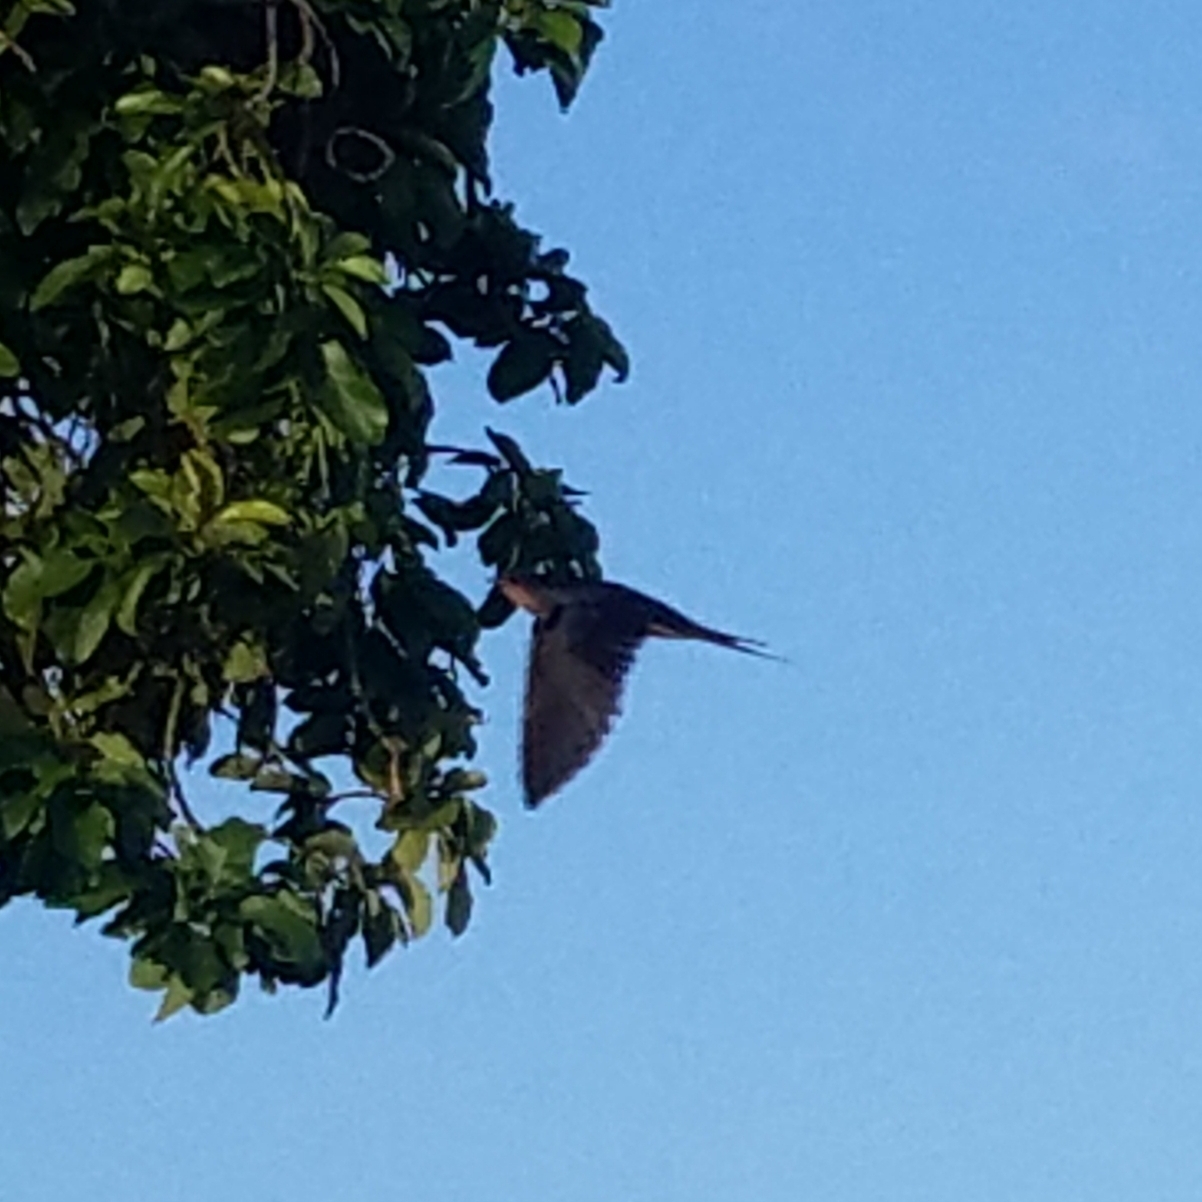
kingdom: Animalia
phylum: Chordata
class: Aves
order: Passeriformes
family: Hirundinidae
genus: Hirundo
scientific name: Hirundo rustica
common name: Barn swallow
